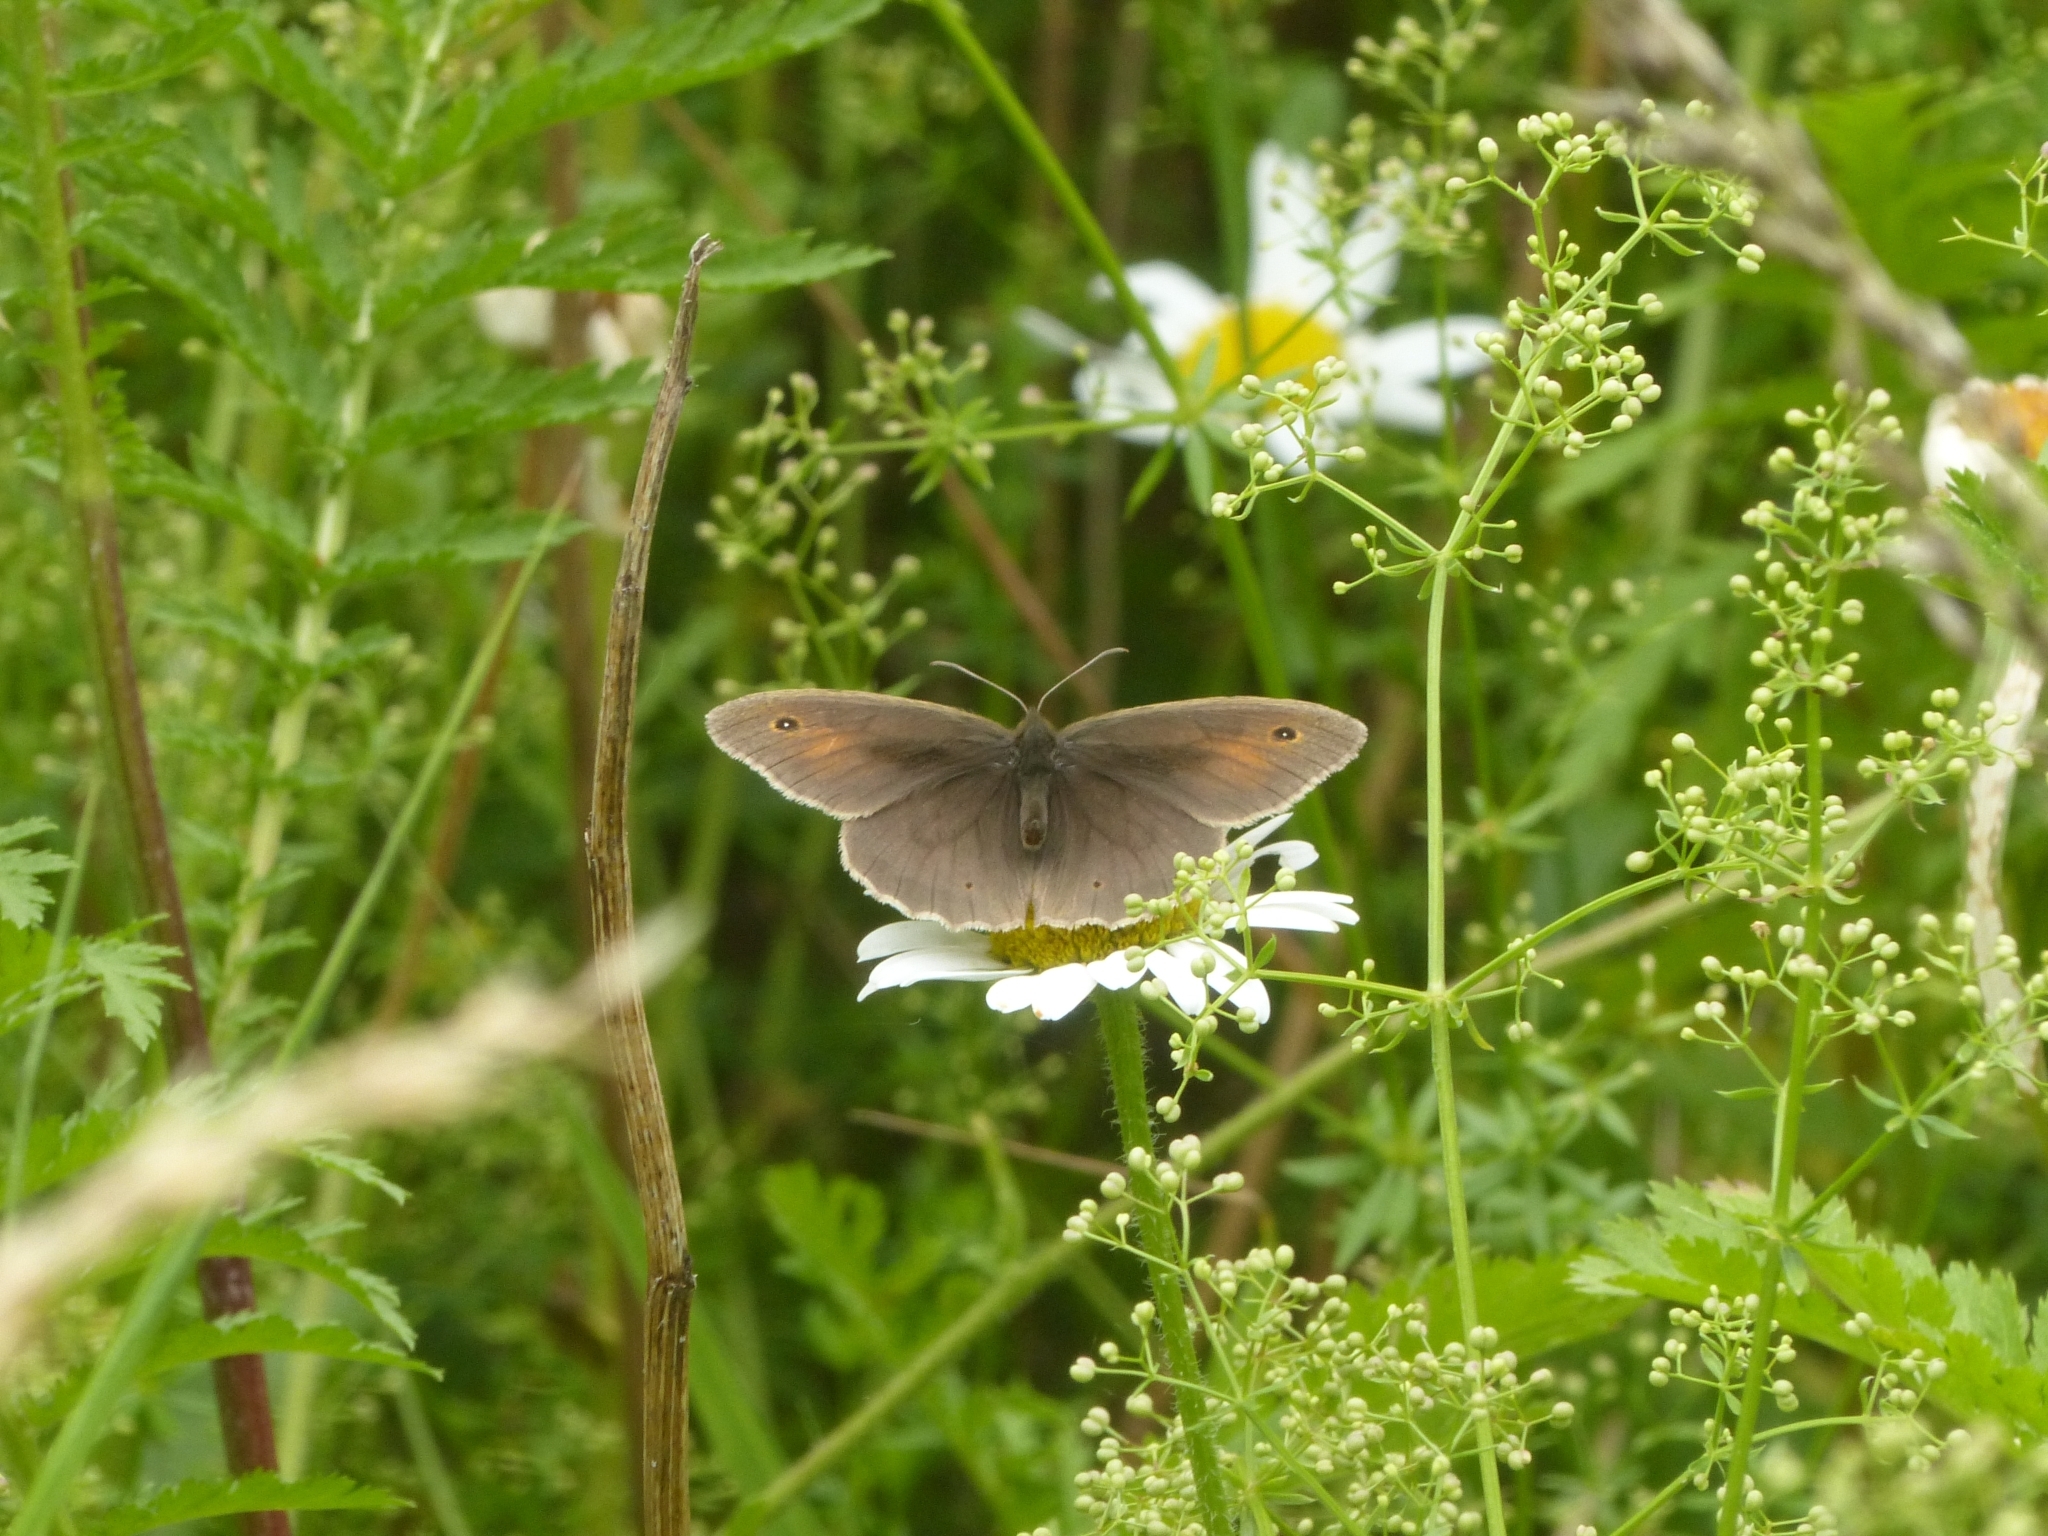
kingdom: Animalia
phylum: Arthropoda
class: Insecta
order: Lepidoptera
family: Nymphalidae
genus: Maniola
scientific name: Maniola jurtina
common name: Meadow brown
